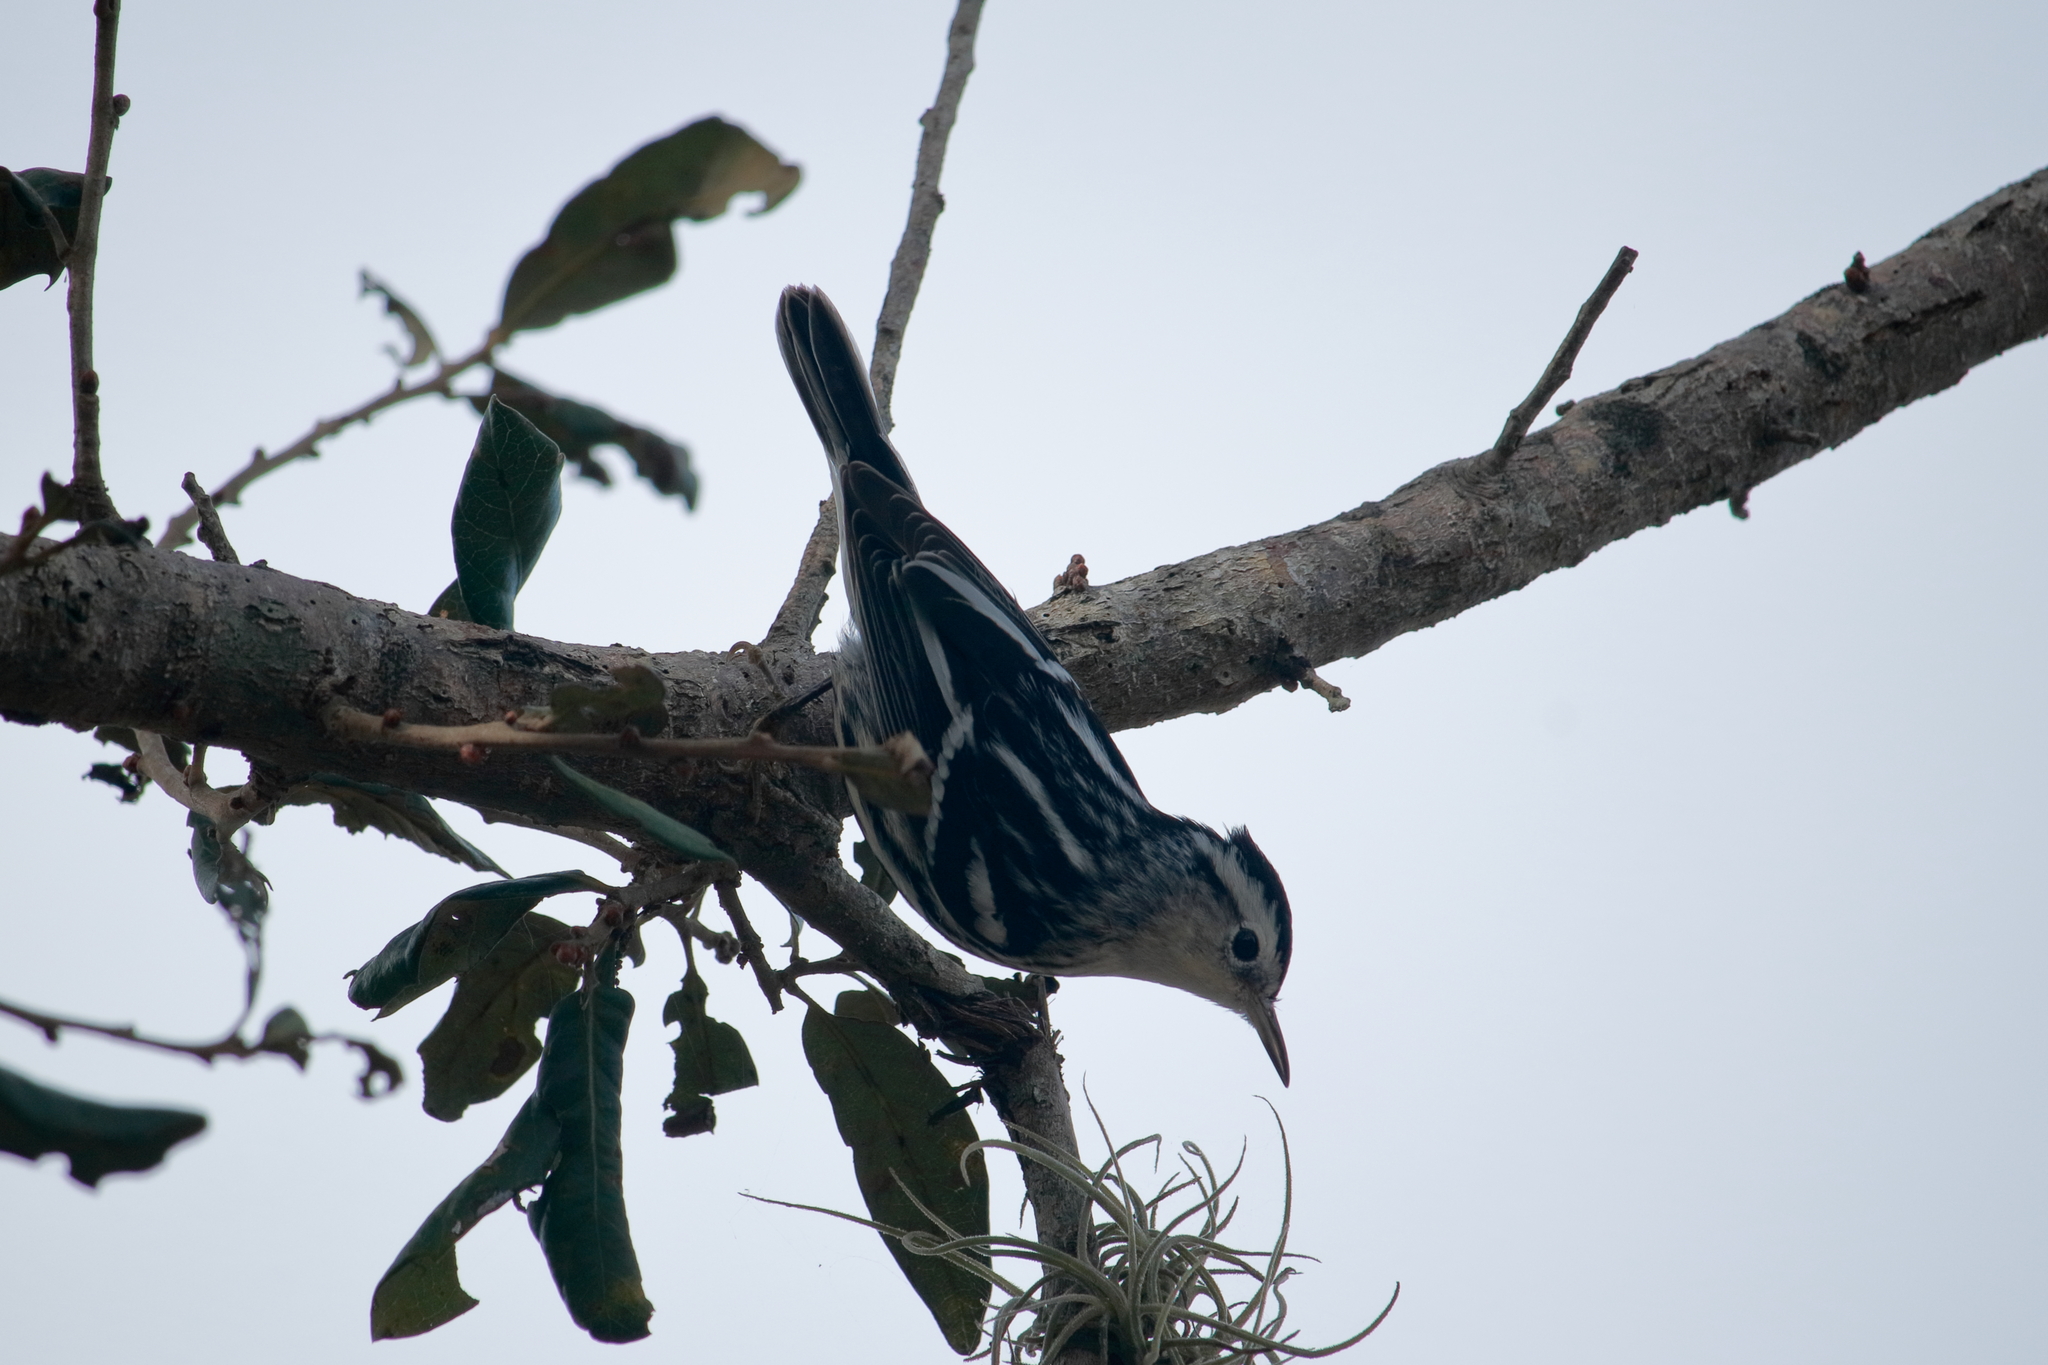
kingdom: Animalia
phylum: Chordata
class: Aves
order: Passeriformes
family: Parulidae
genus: Mniotilta
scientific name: Mniotilta varia
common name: Black-and-white warbler
